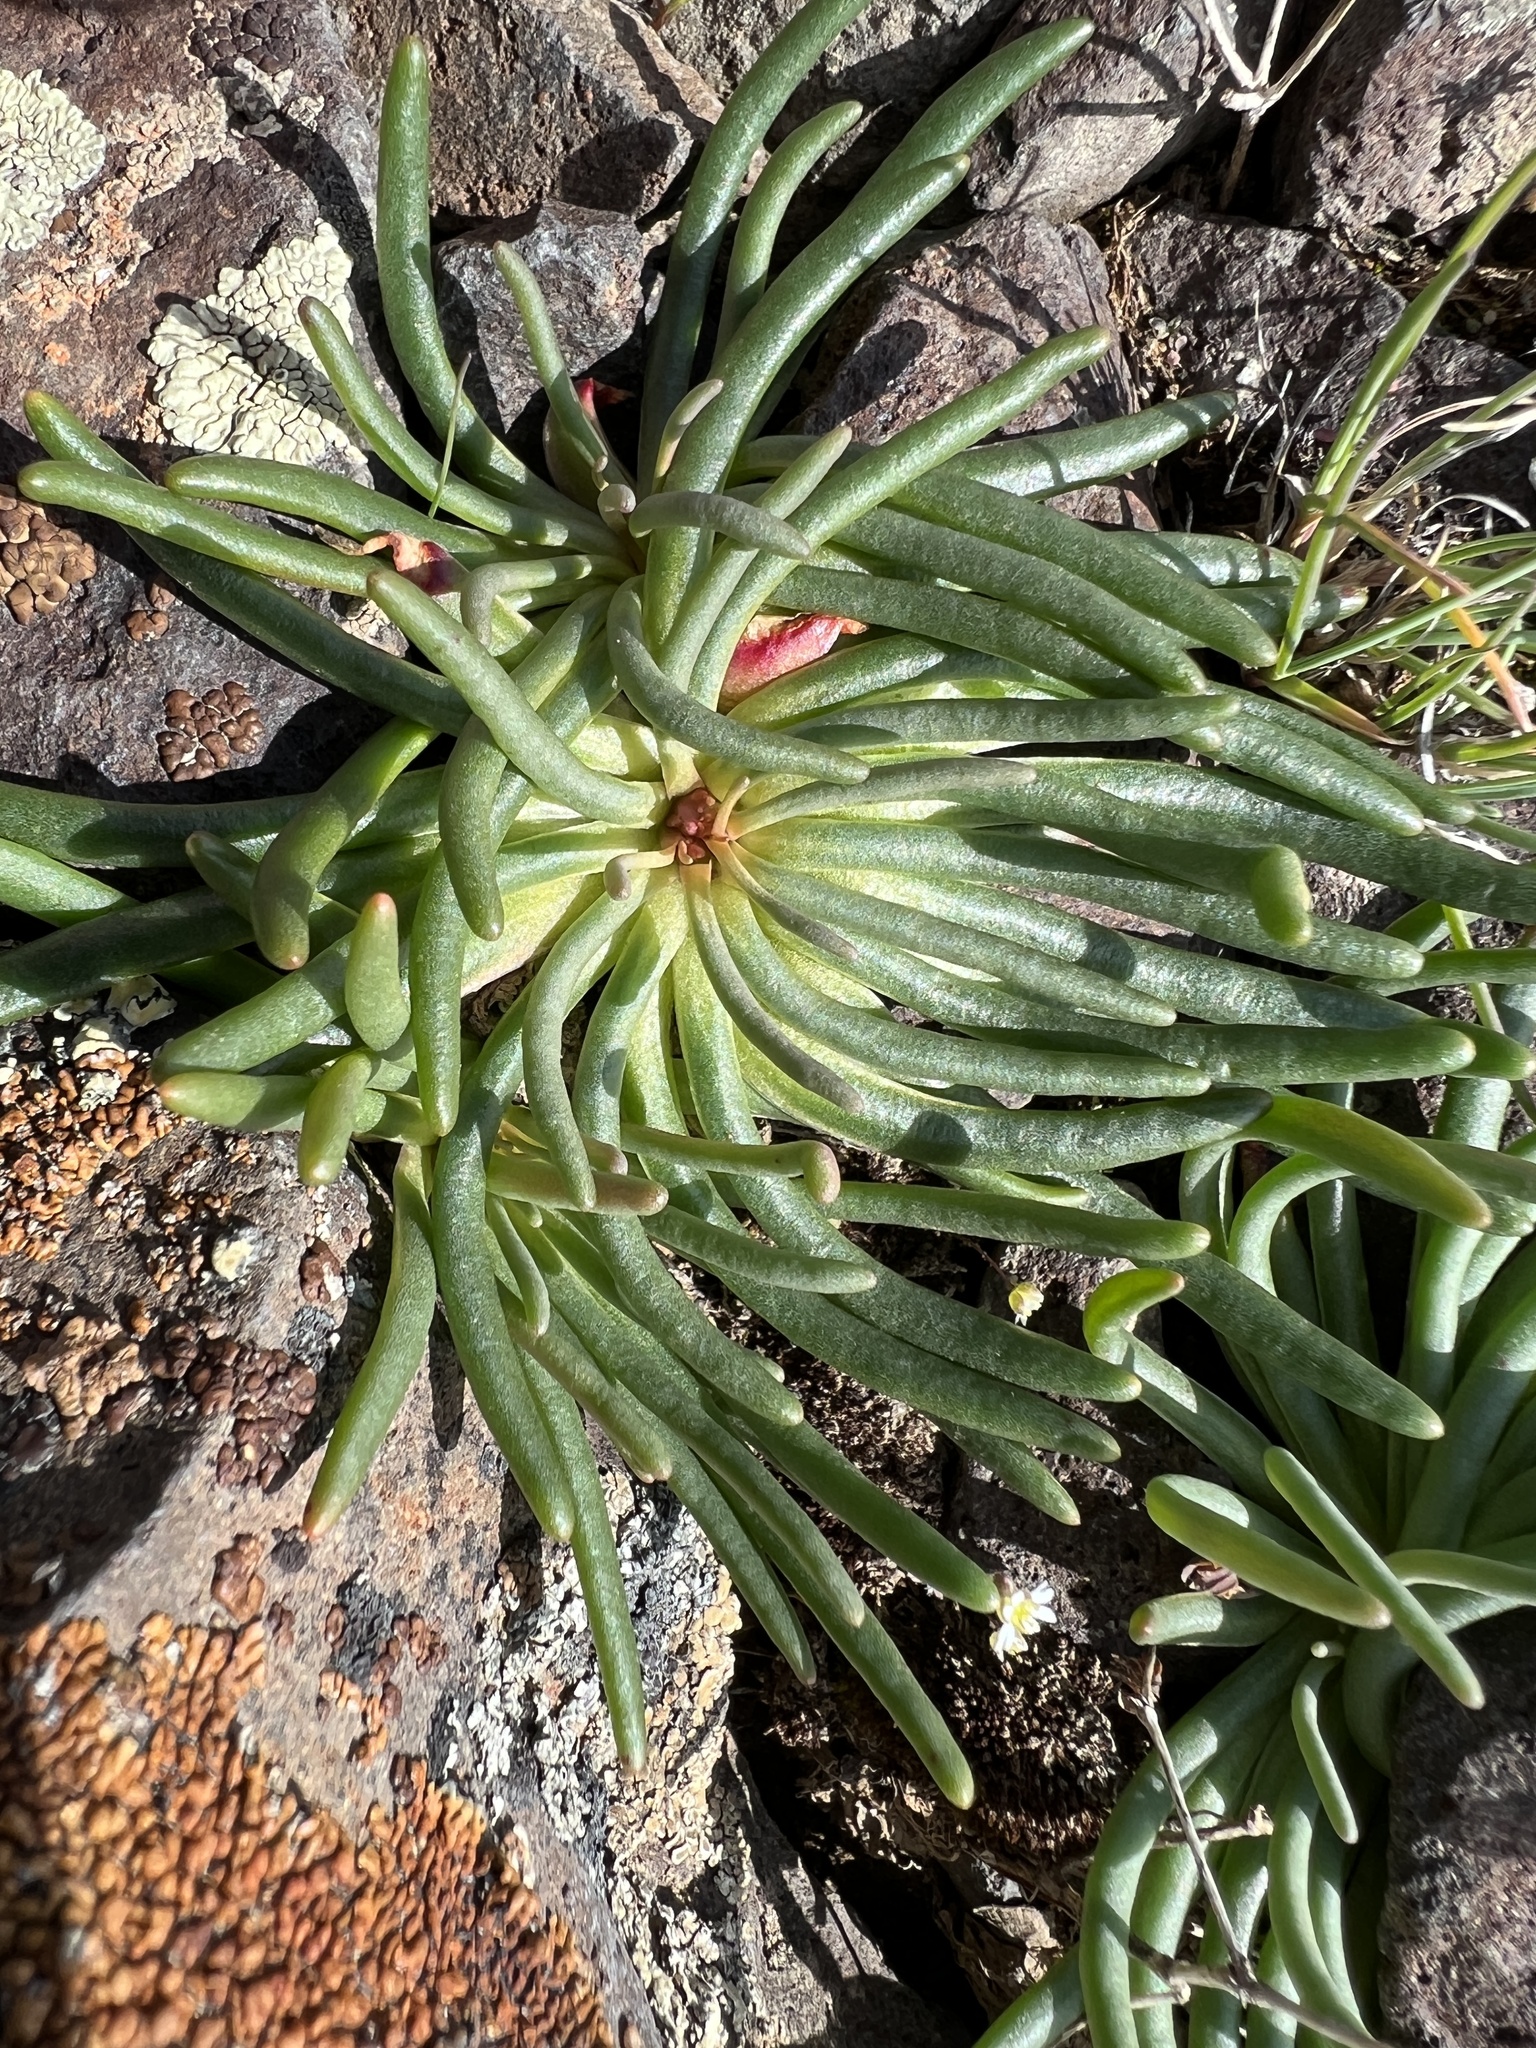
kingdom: Plantae
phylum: Tracheophyta
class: Magnoliopsida
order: Caryophyllales
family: Montiaceae
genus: Lewisia
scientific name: Lewisia rediviva
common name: Bitter-root
